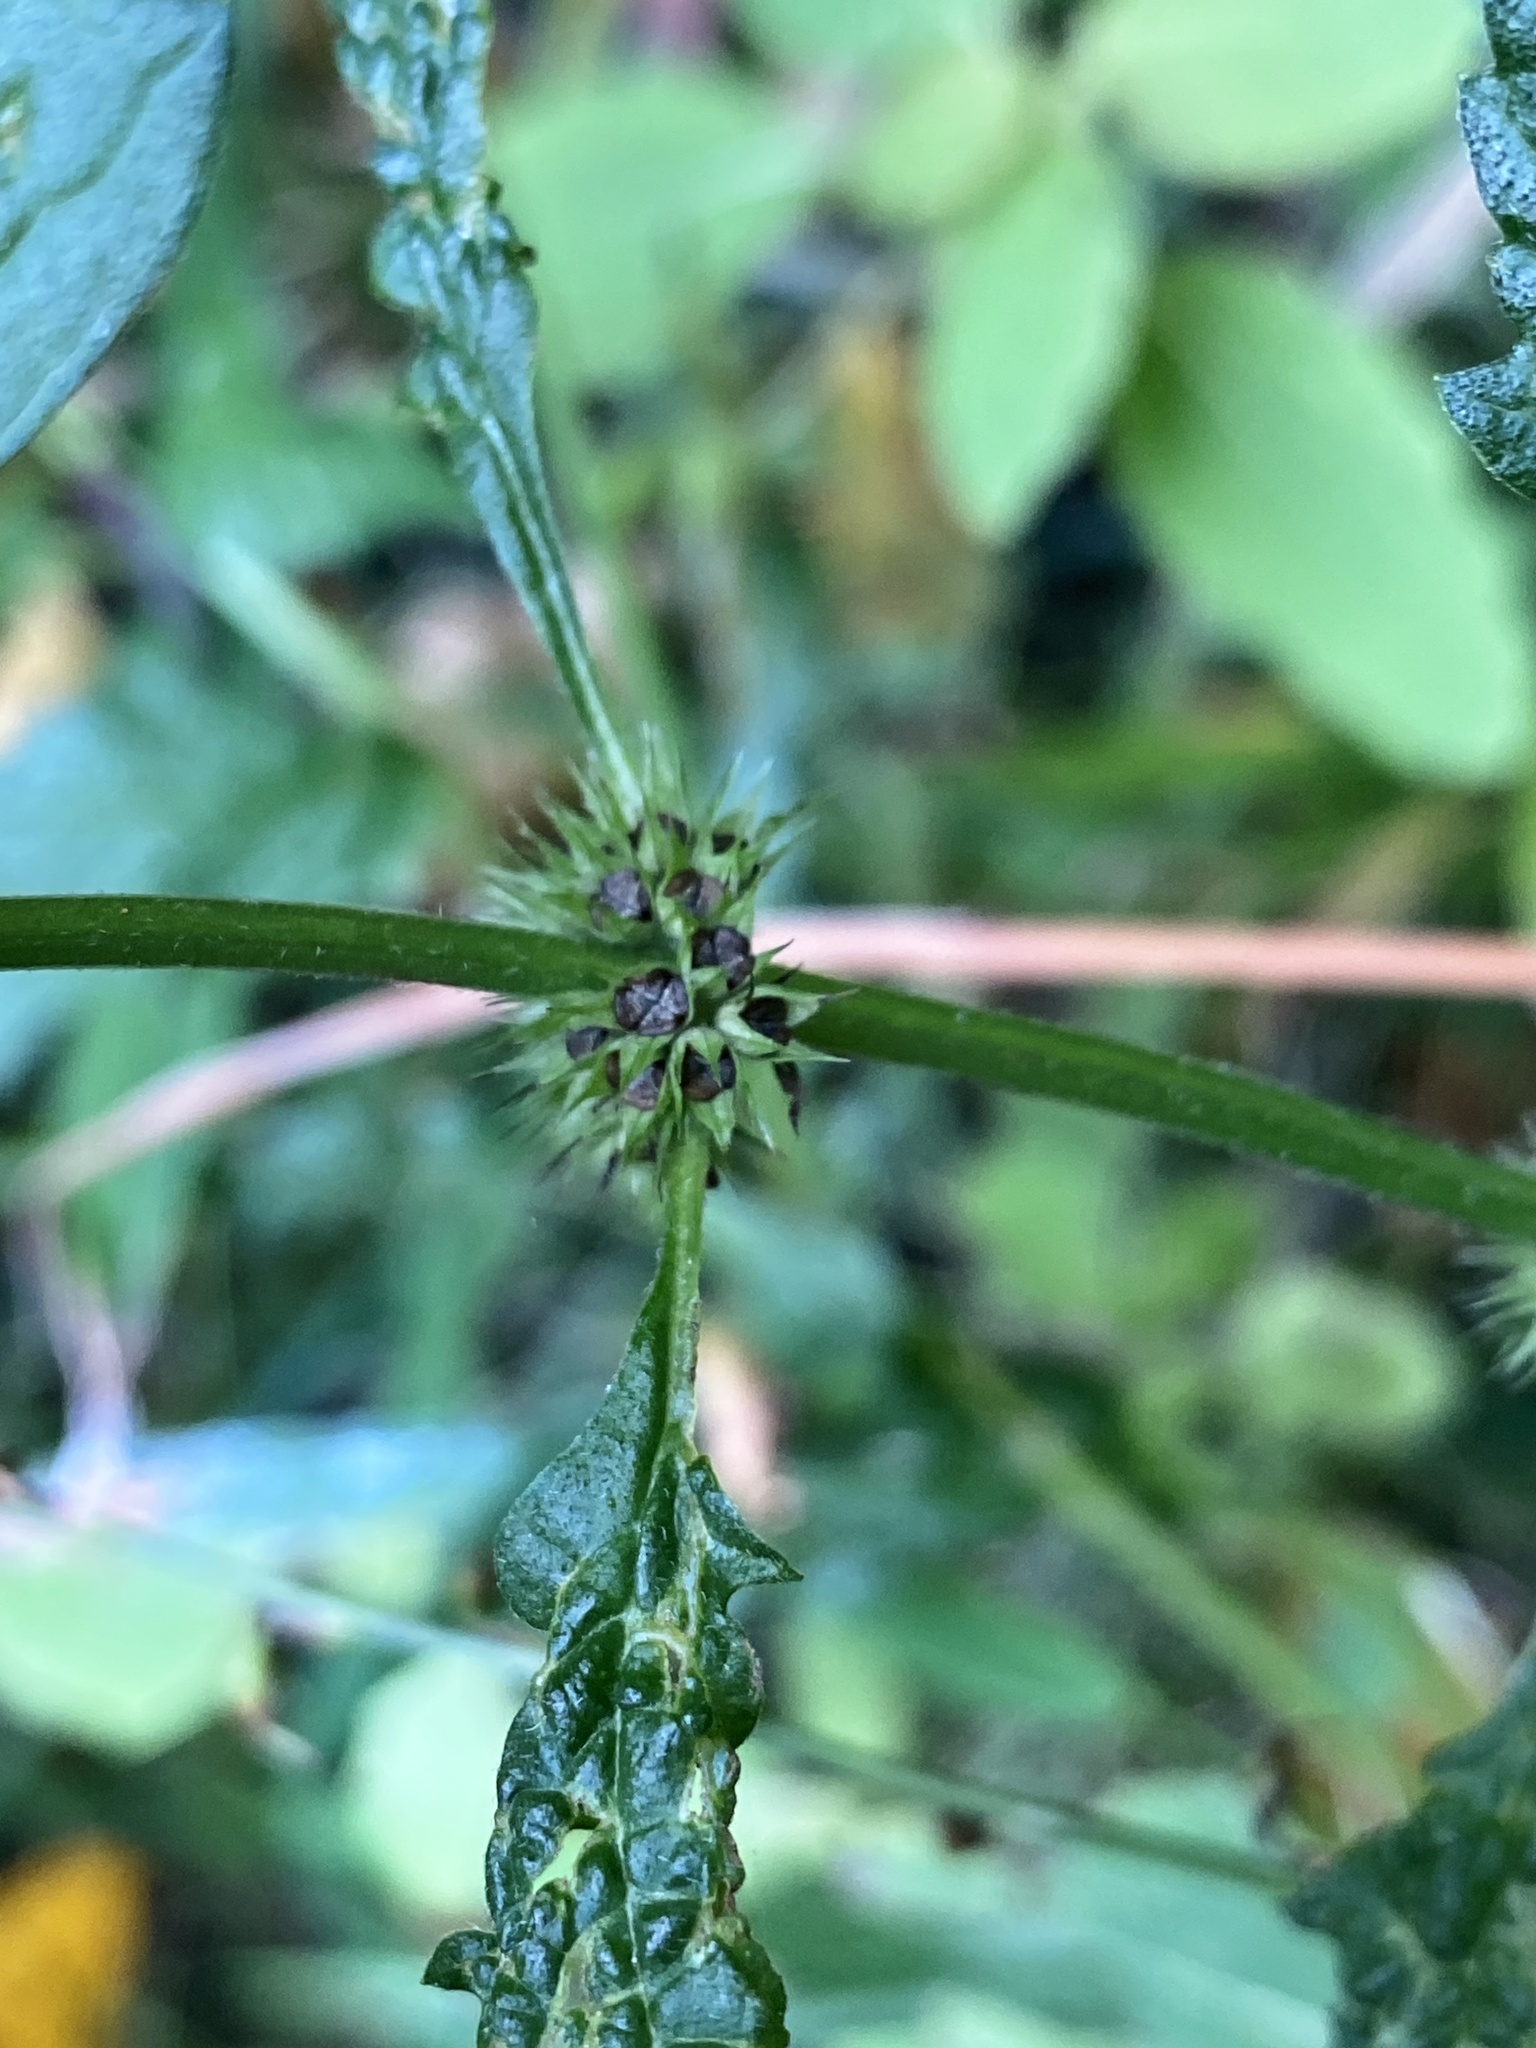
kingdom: Plantae
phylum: Tracheophyta
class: Magnoliopsida
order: Lamiales
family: Lamiaceae
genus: Lycopus
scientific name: Lycopus europaeus
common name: European bugleweed
